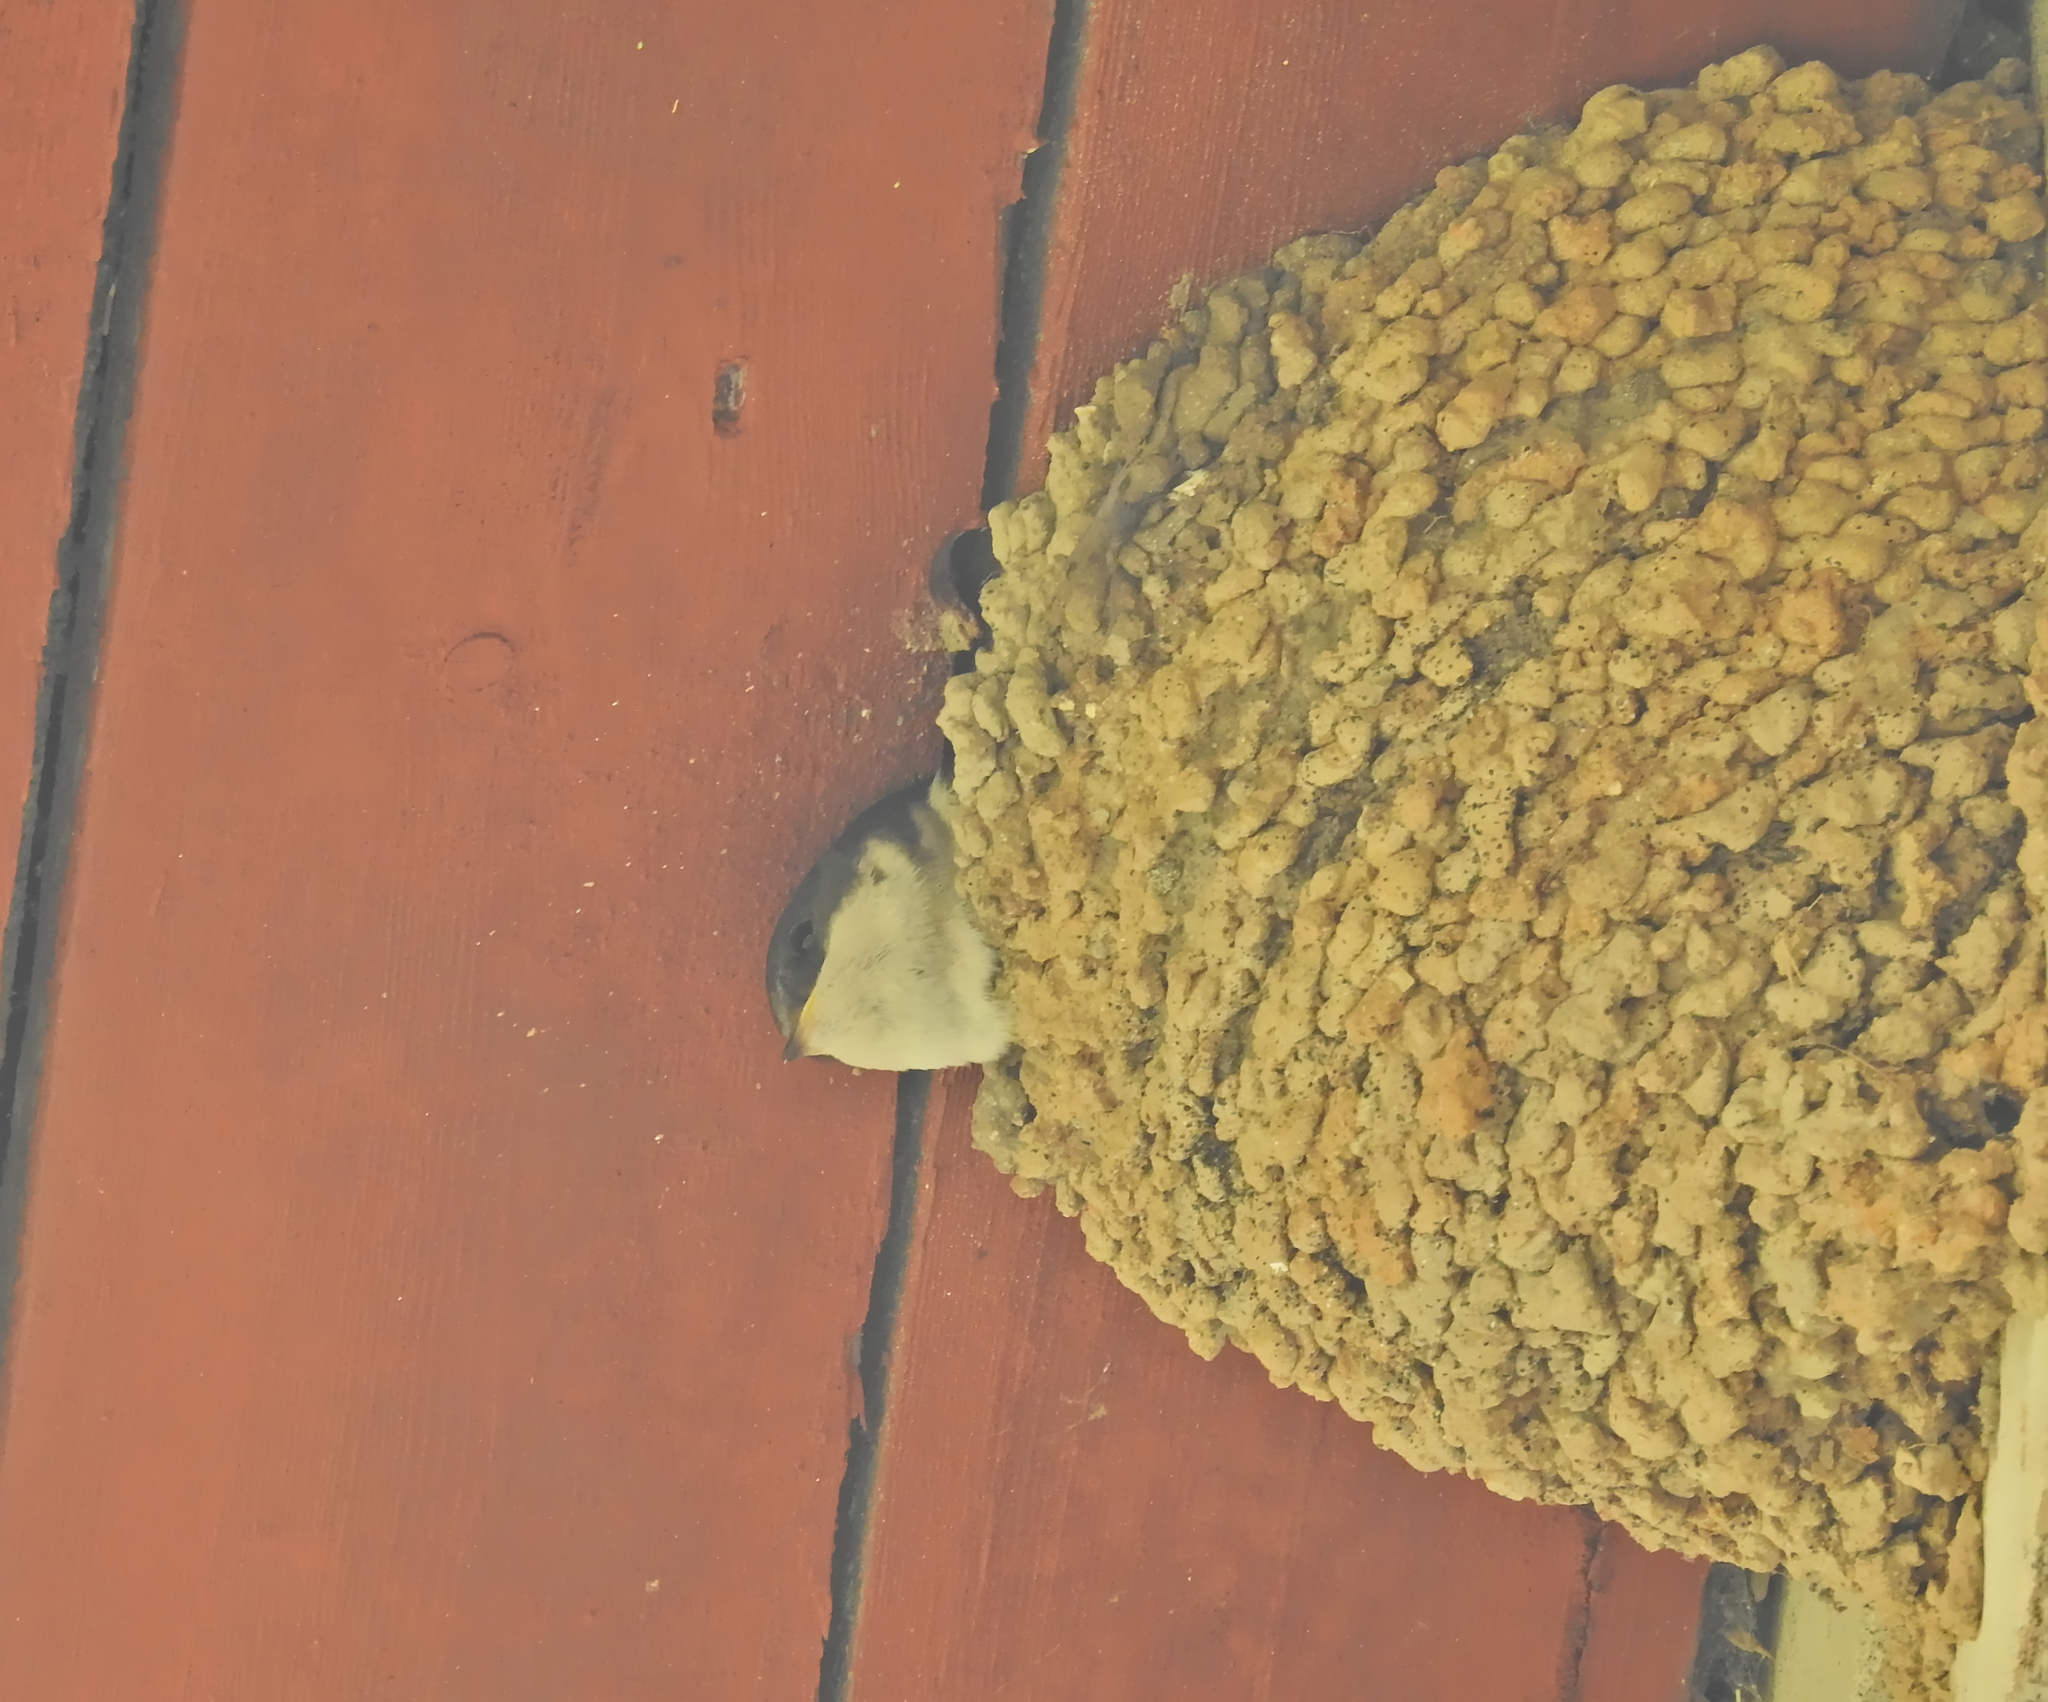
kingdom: Animalia
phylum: Chordata
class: Aves
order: Passeriformes
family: Hirundinidae
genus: Delichon
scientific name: Delichon urbicum
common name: Common house martin
